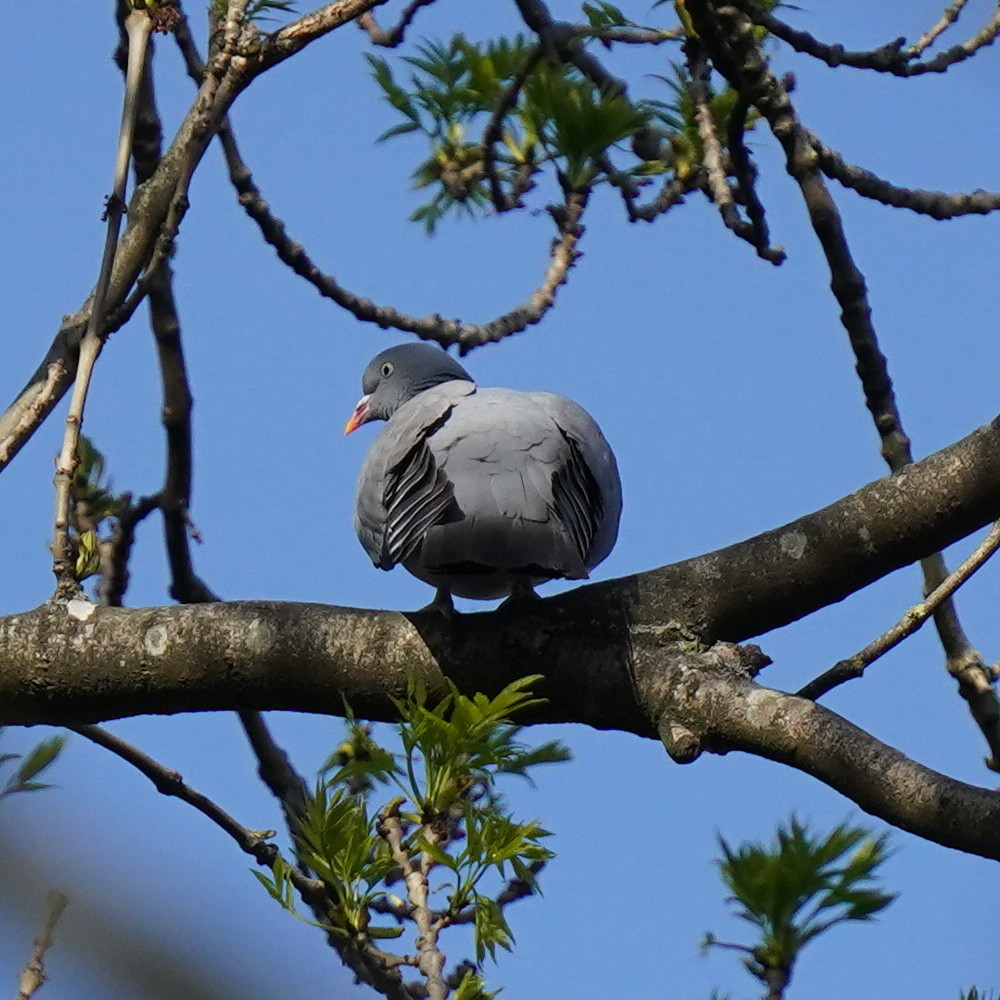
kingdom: Animalia
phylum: Chordata
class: Aves
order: Columbiformes
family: Columbidae
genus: Columba
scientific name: Columba palumbus
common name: Common wood pigeon
